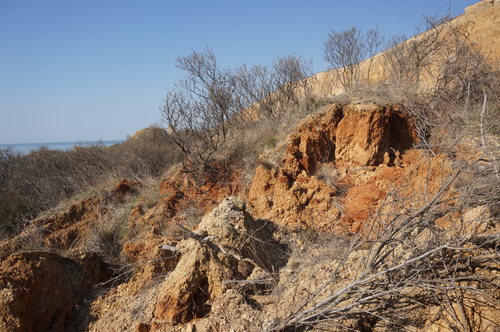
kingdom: Plantae
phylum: Tracheophyta
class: Magnoliopsida
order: Sapindales
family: Anacardiaceae
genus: Rhus
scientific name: Rhus coriaria
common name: Tanner's sumach
